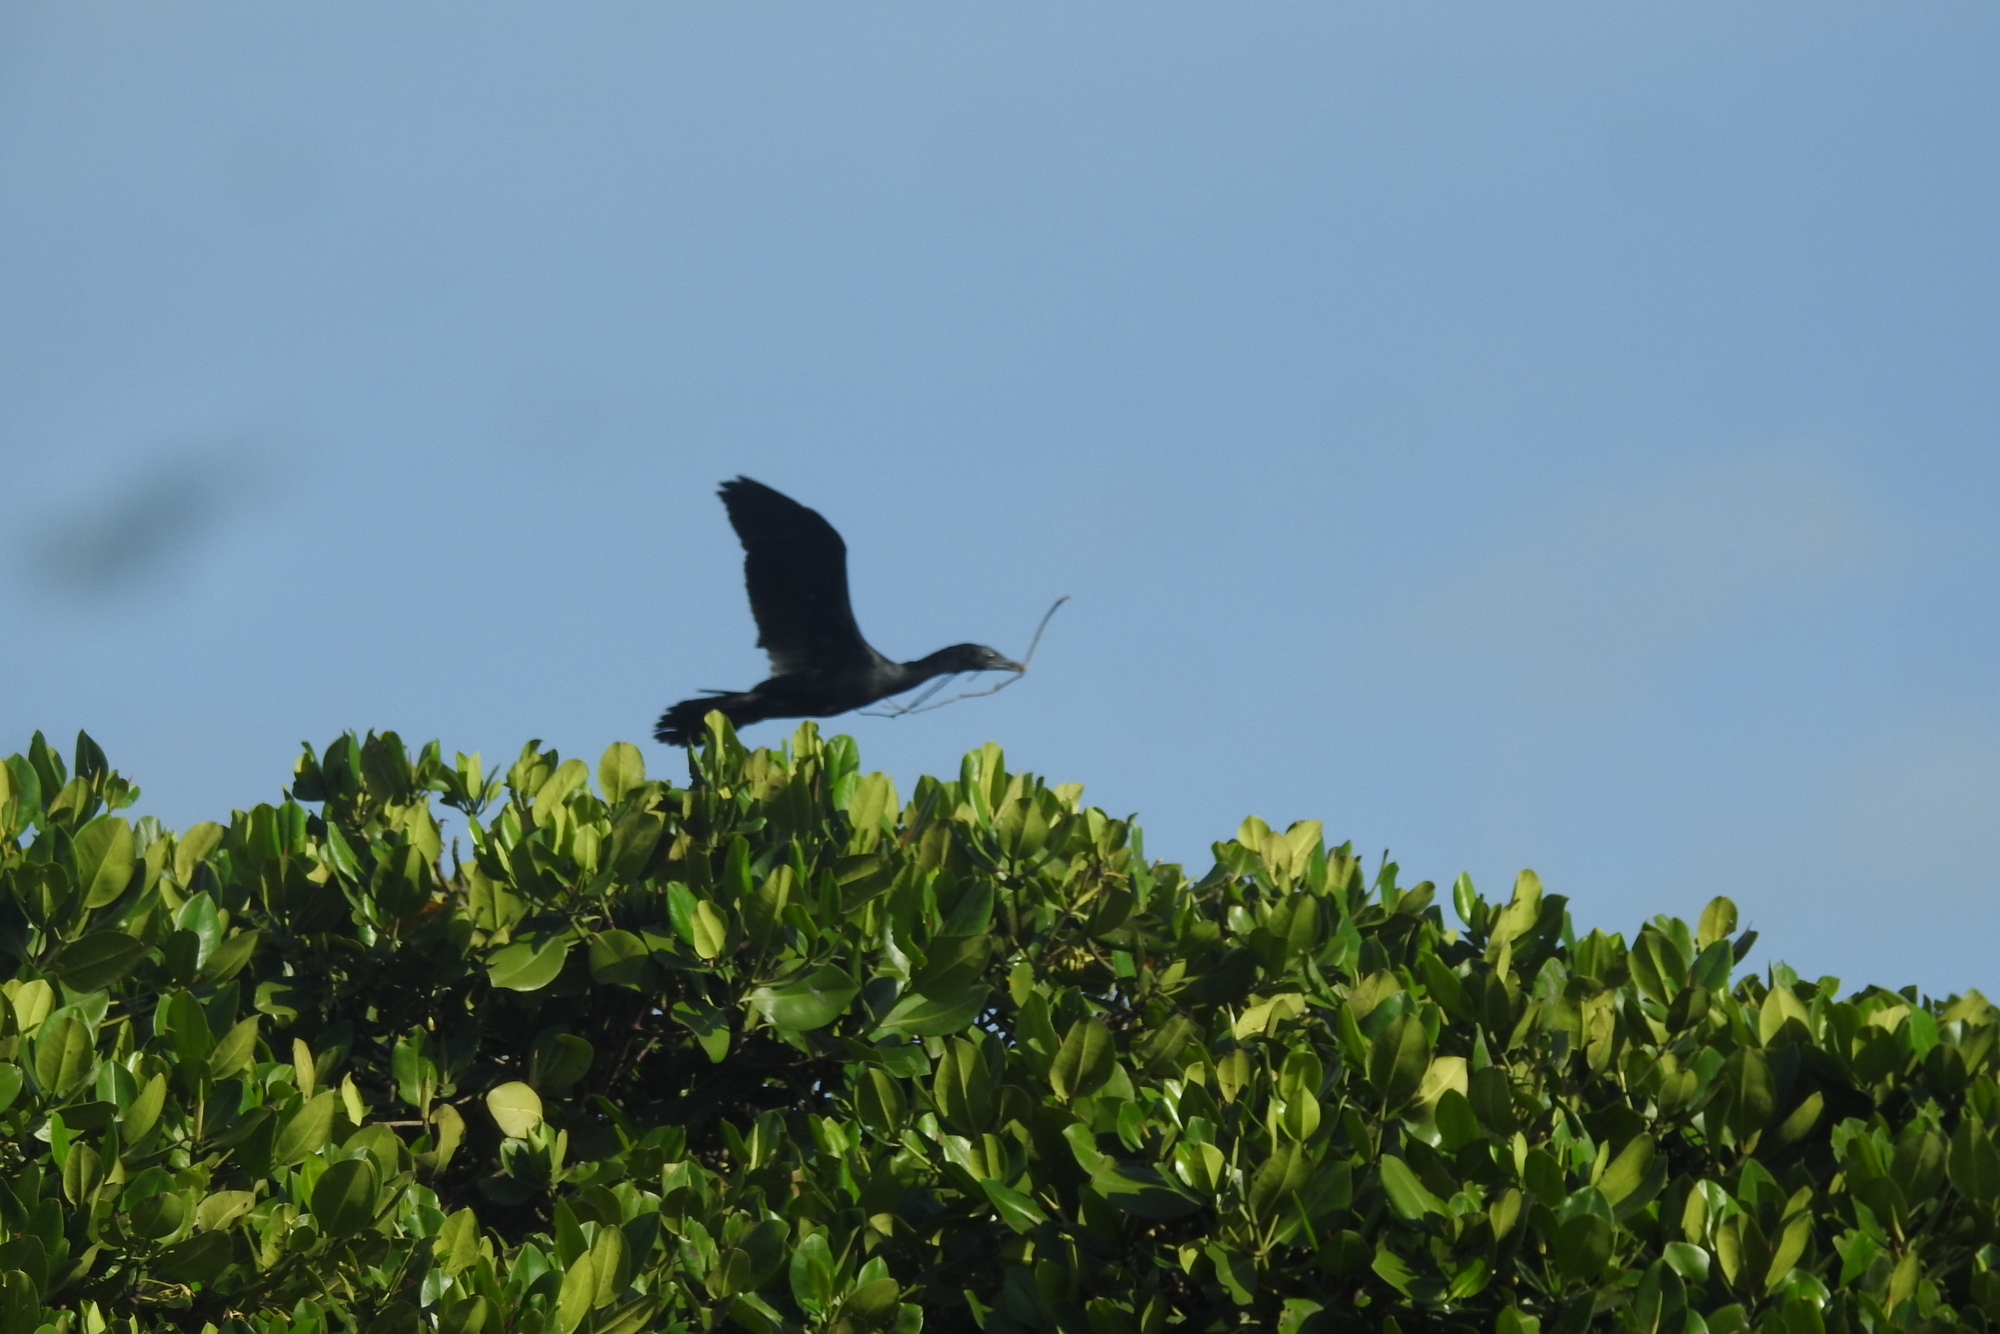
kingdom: Animalia
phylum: Chordata
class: Aves
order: Suliformes
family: Phalacrocoracidae
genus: Microcarbo
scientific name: Microcarbo niger
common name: Little cormorant
